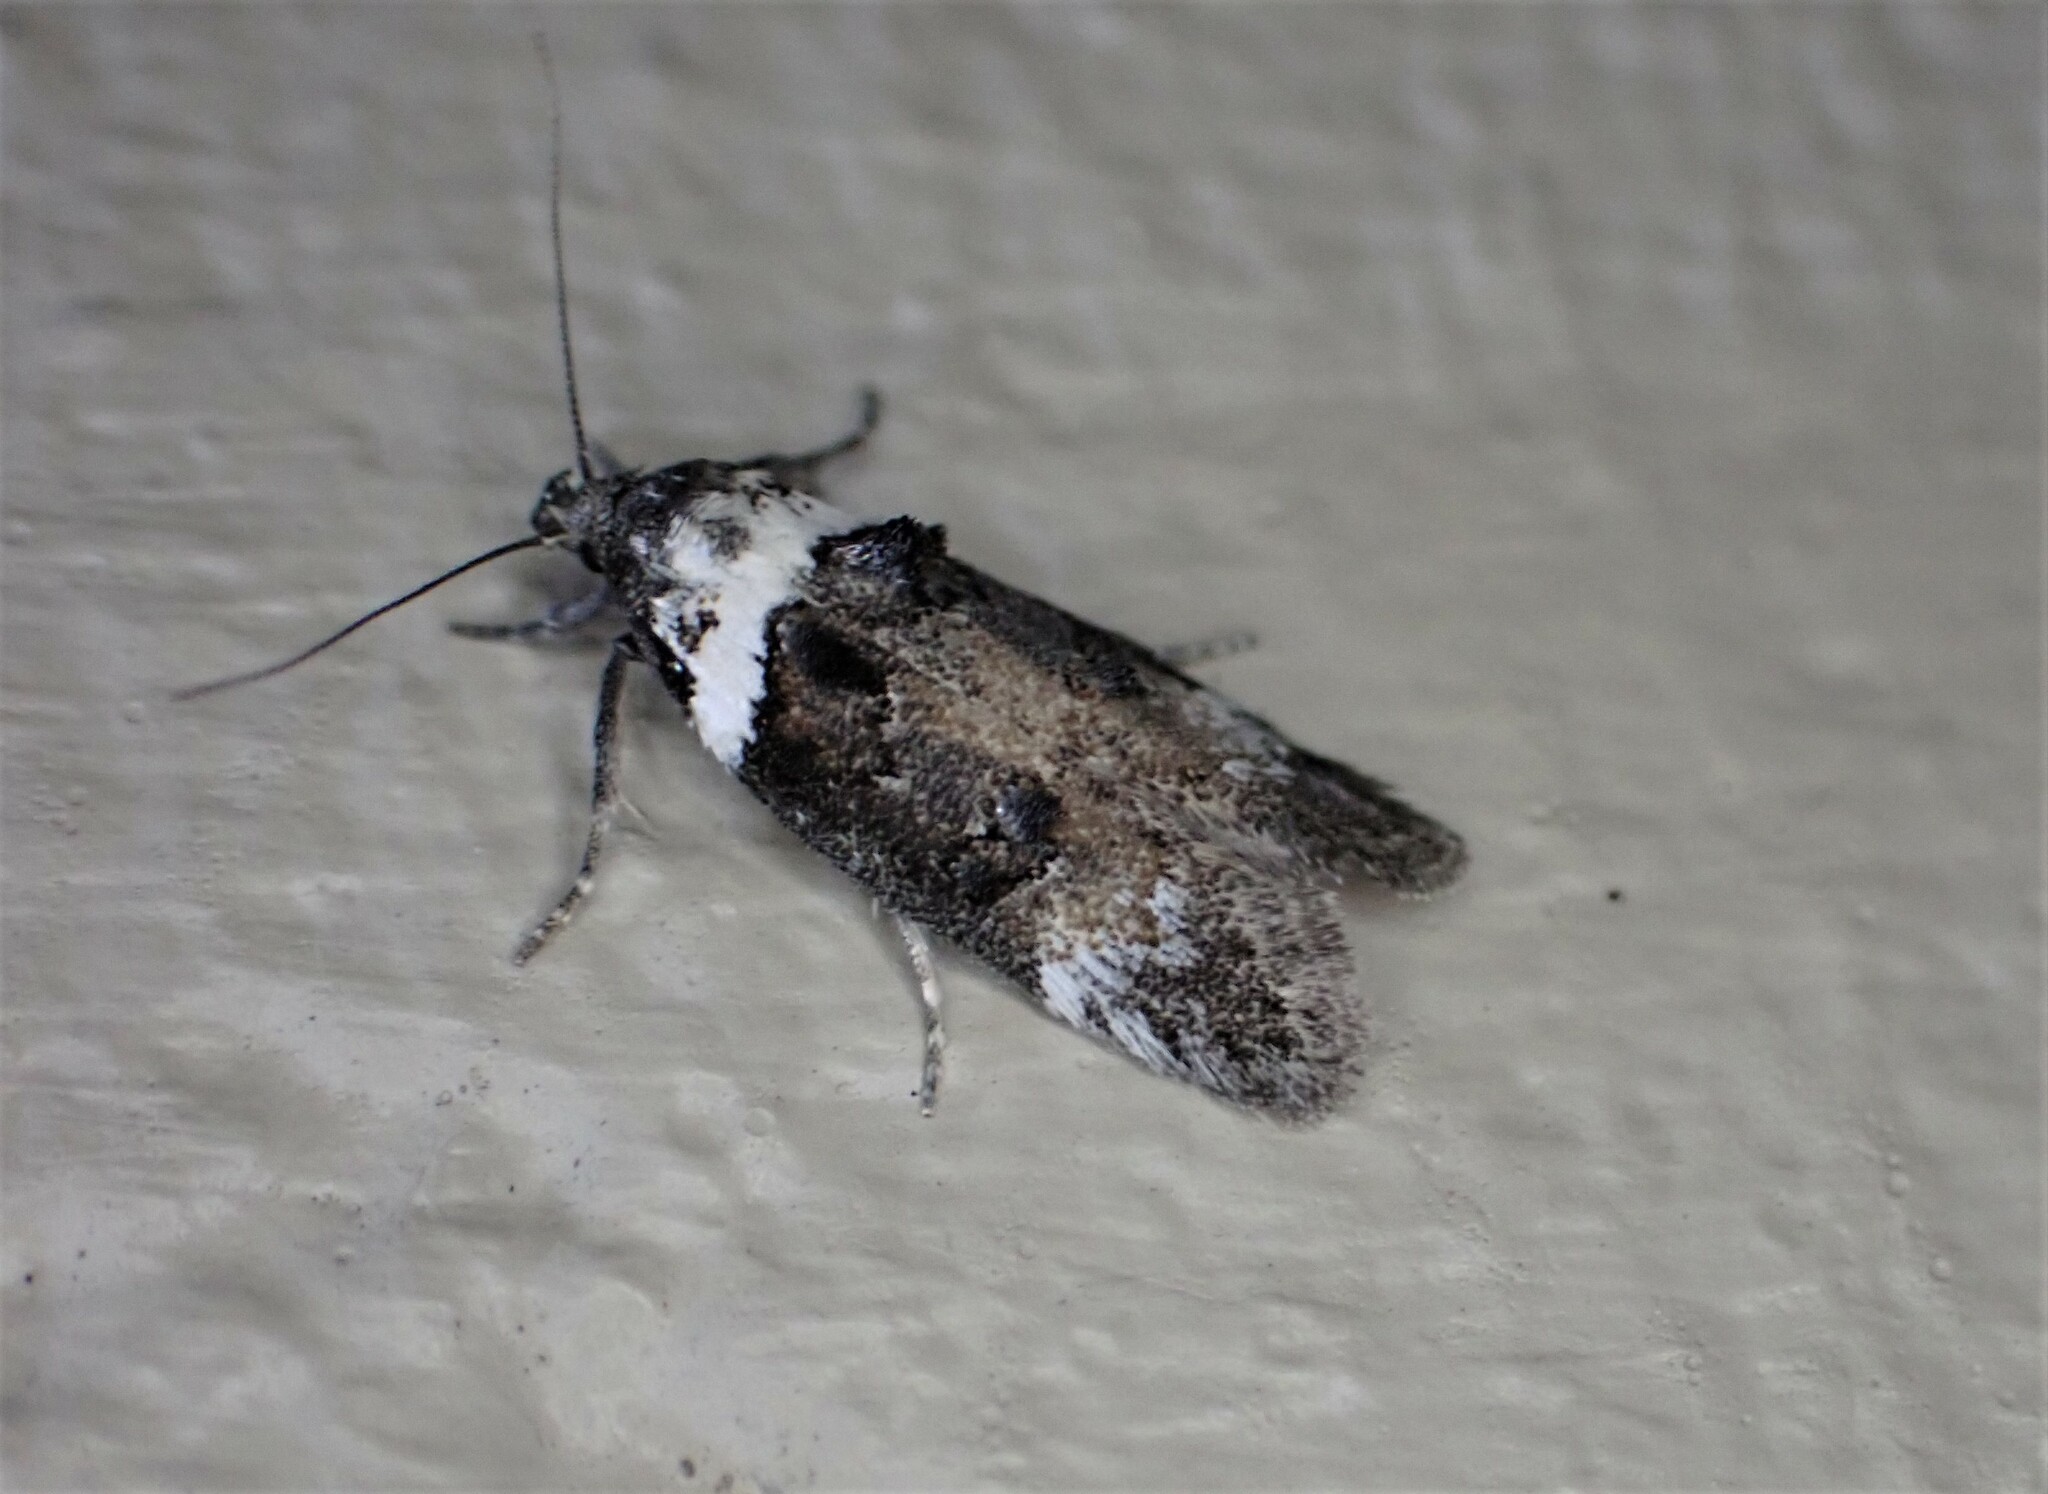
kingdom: Animalia
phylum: Arthropoda
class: Insecta
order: Lepidoptera
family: Oecophoridae
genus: Trachypepla
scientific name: Trachypepla conspicuella
